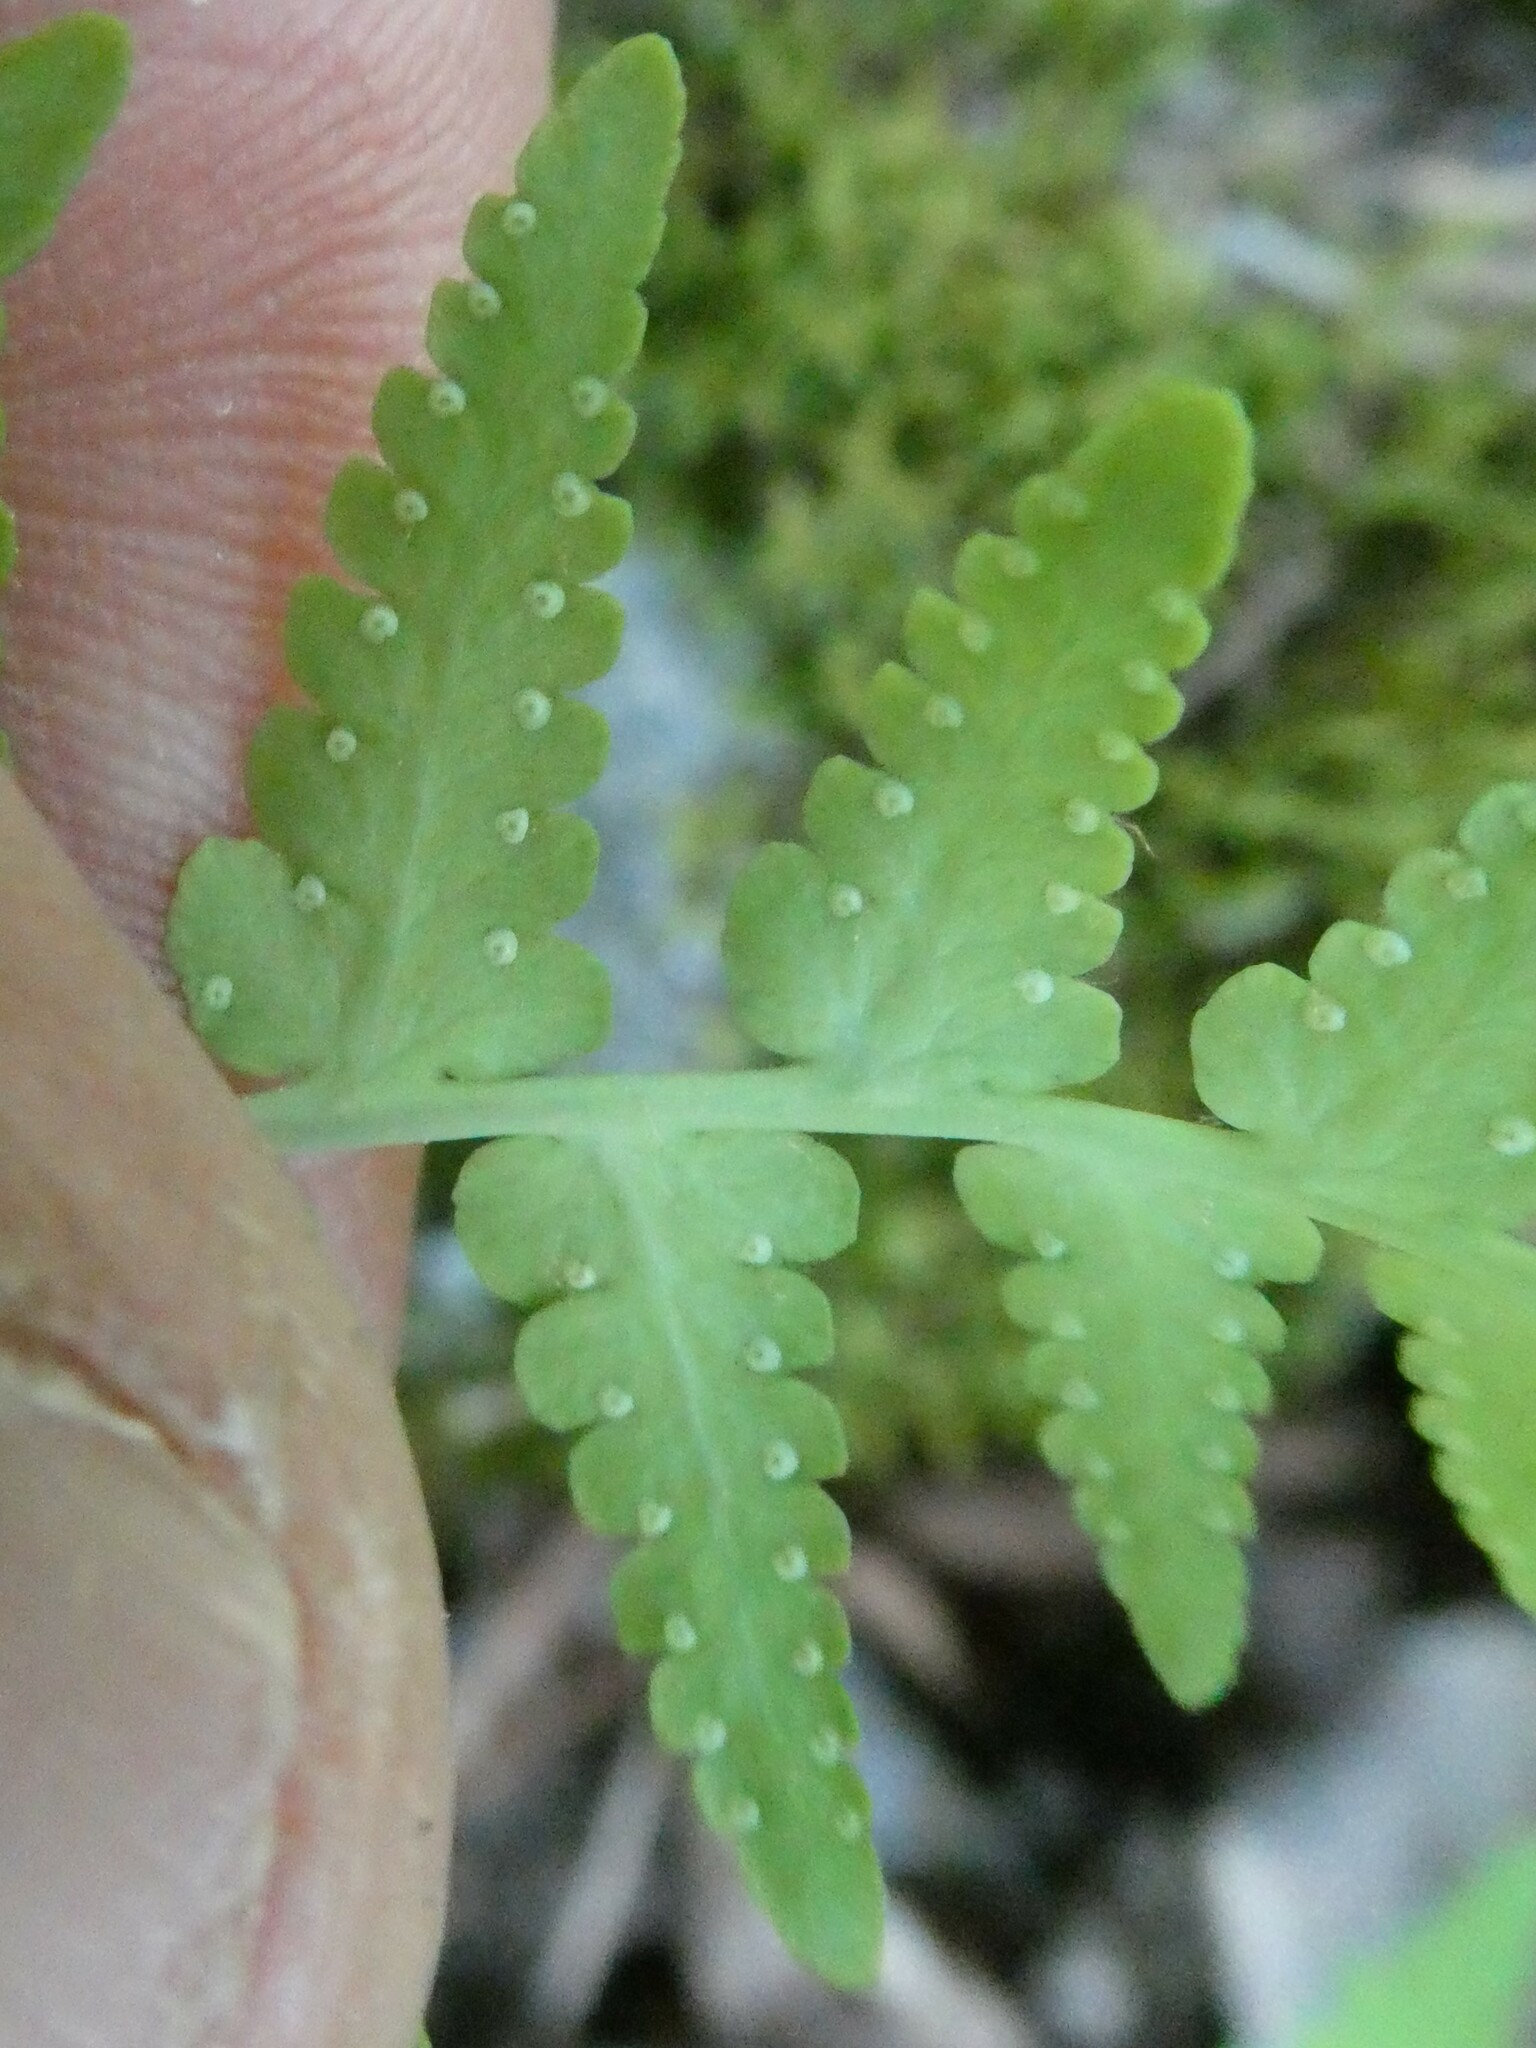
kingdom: Plantae
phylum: Tracheophyta
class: Polypodiopsida
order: Polypodiales
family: Dryopteridaceae
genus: Dryopteris
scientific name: Dryopteris marginalis
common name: Marginal wood fern
